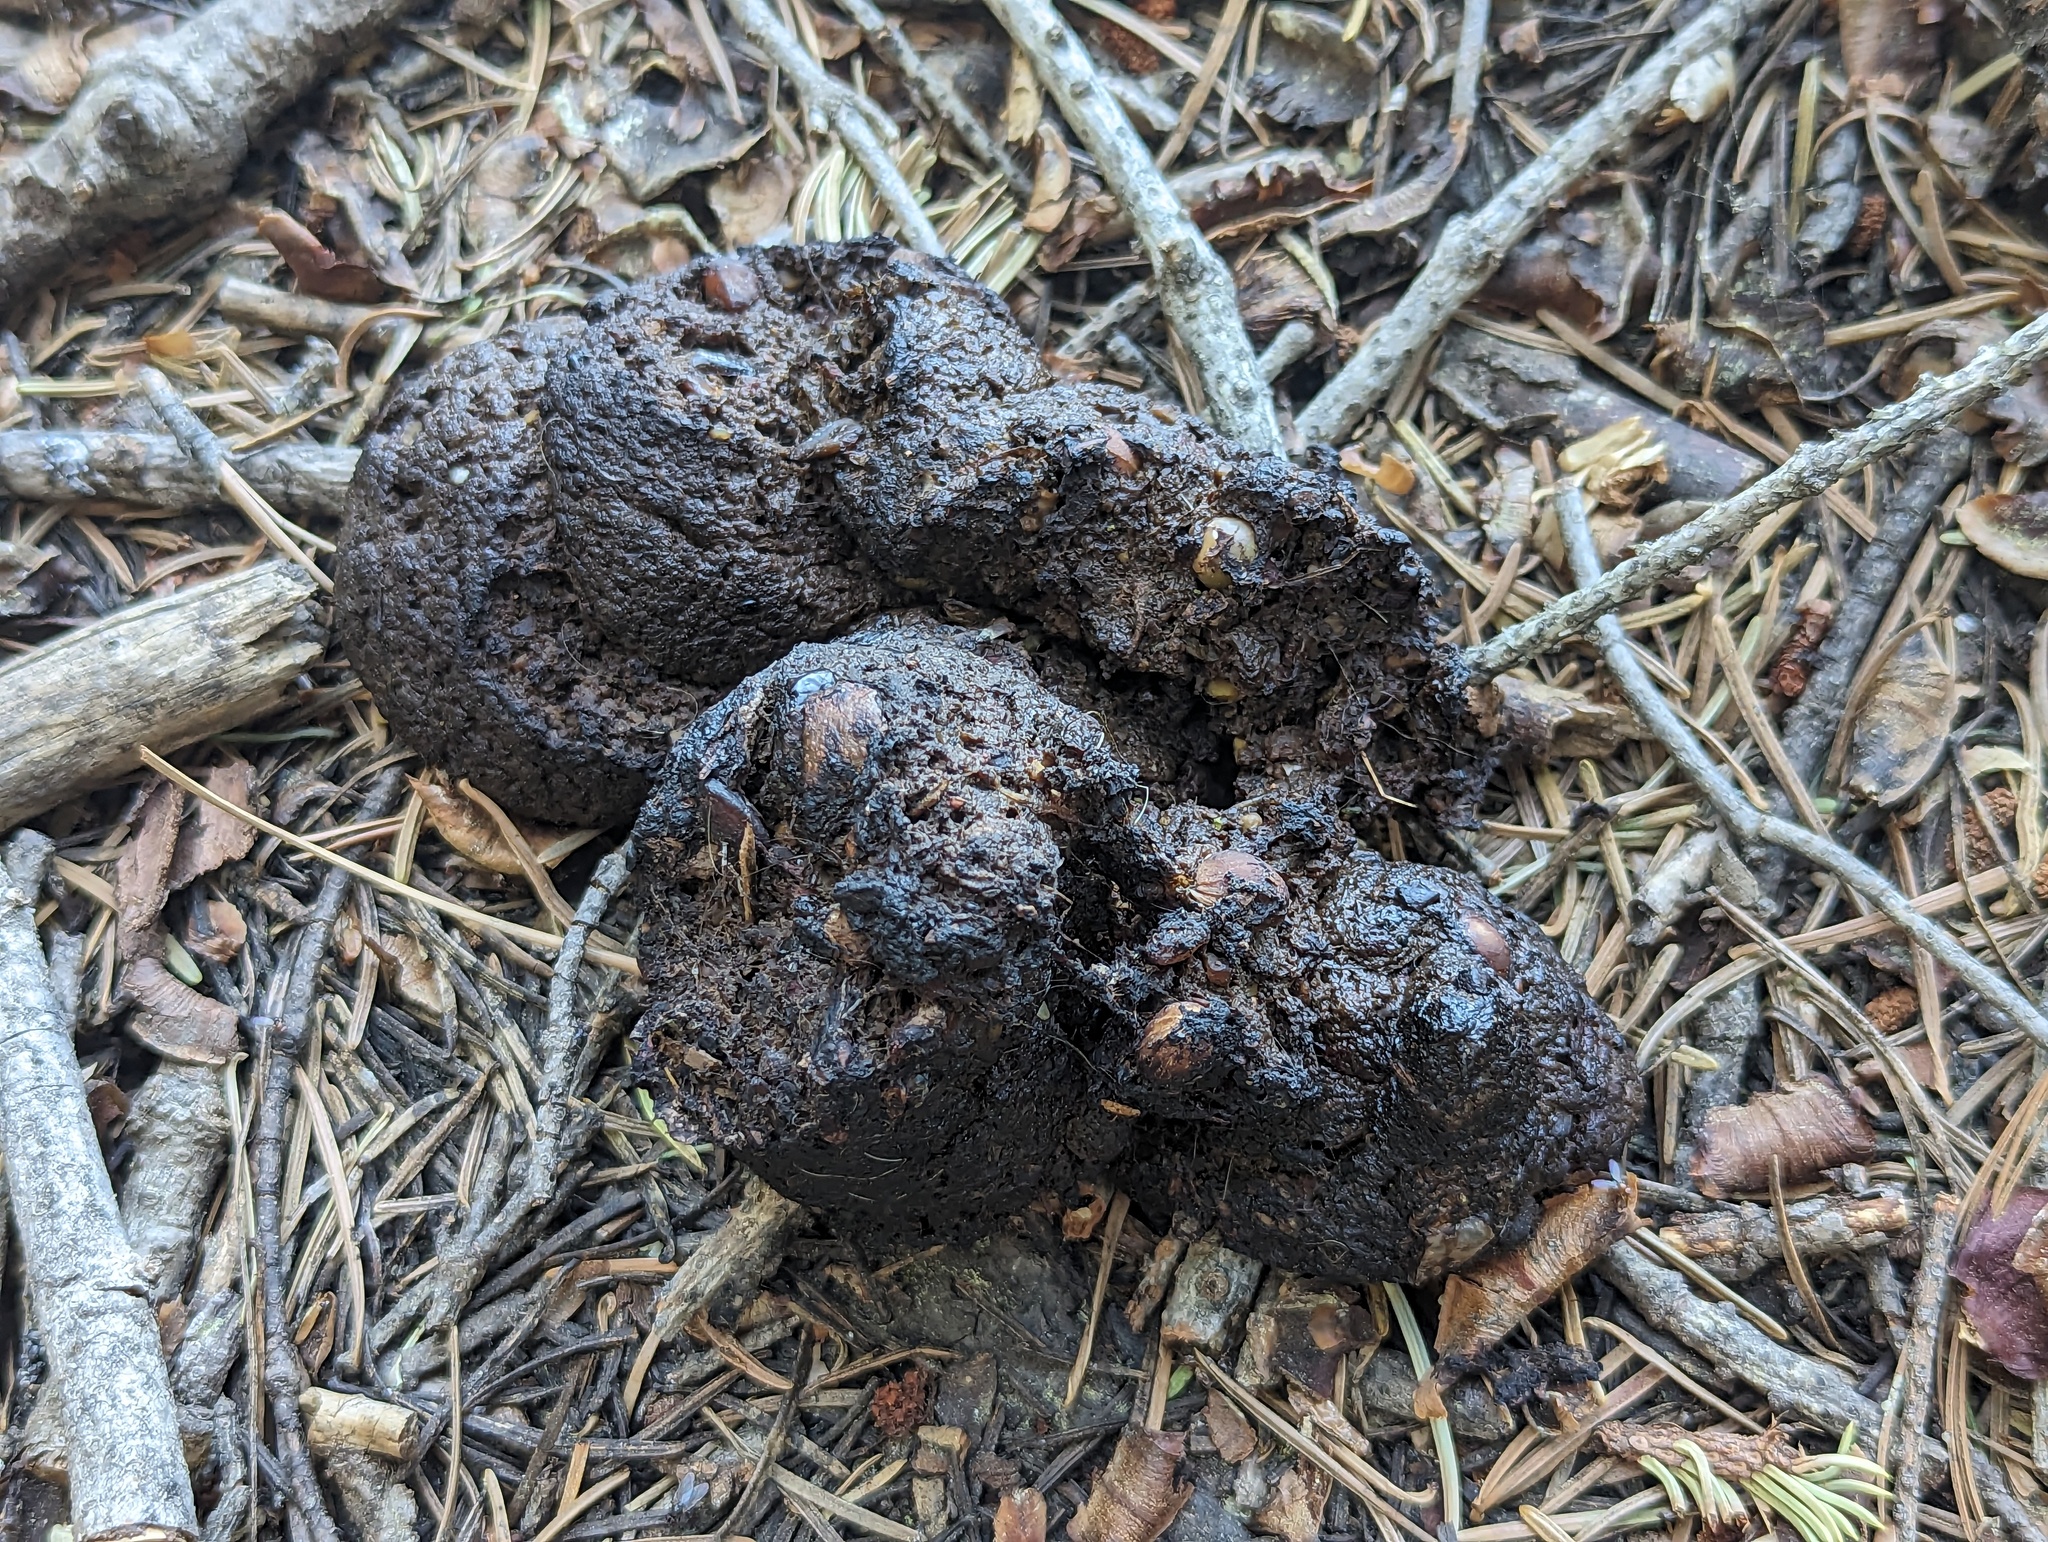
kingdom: Animalia
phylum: Chordata
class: Mammalia
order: Carnivora
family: Ursidae
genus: Ursus
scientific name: Ursus americanus
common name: American black bear
